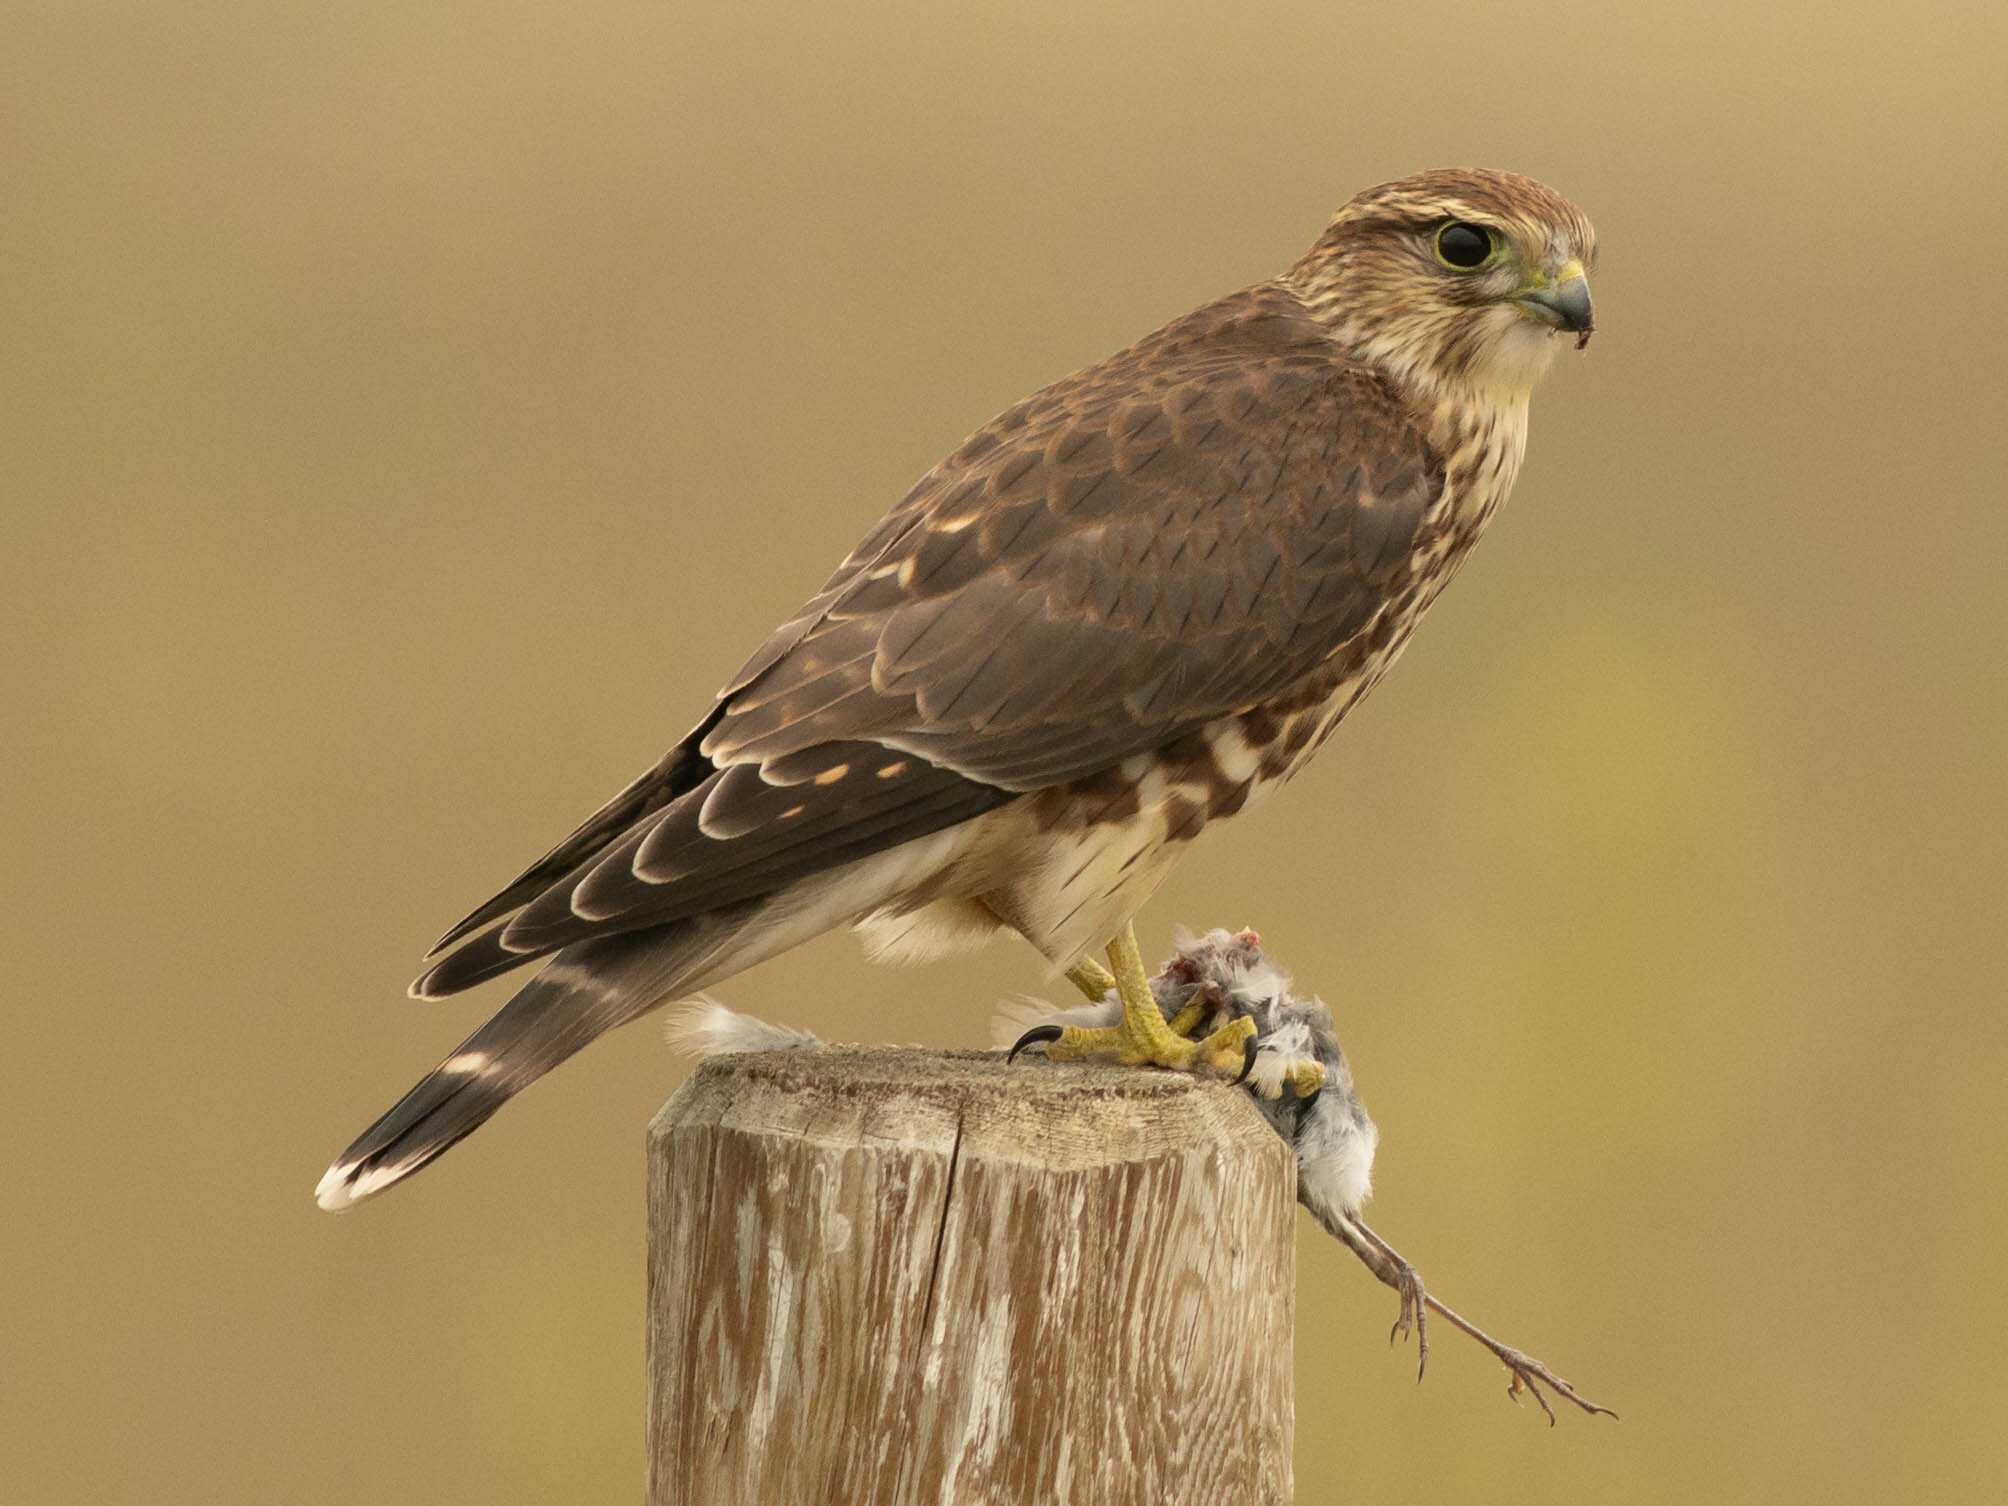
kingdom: Animalia
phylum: Chordata
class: Aves
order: Falconiformes
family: Falconidae
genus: Falco
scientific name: Falco columbarius
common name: Merlin
